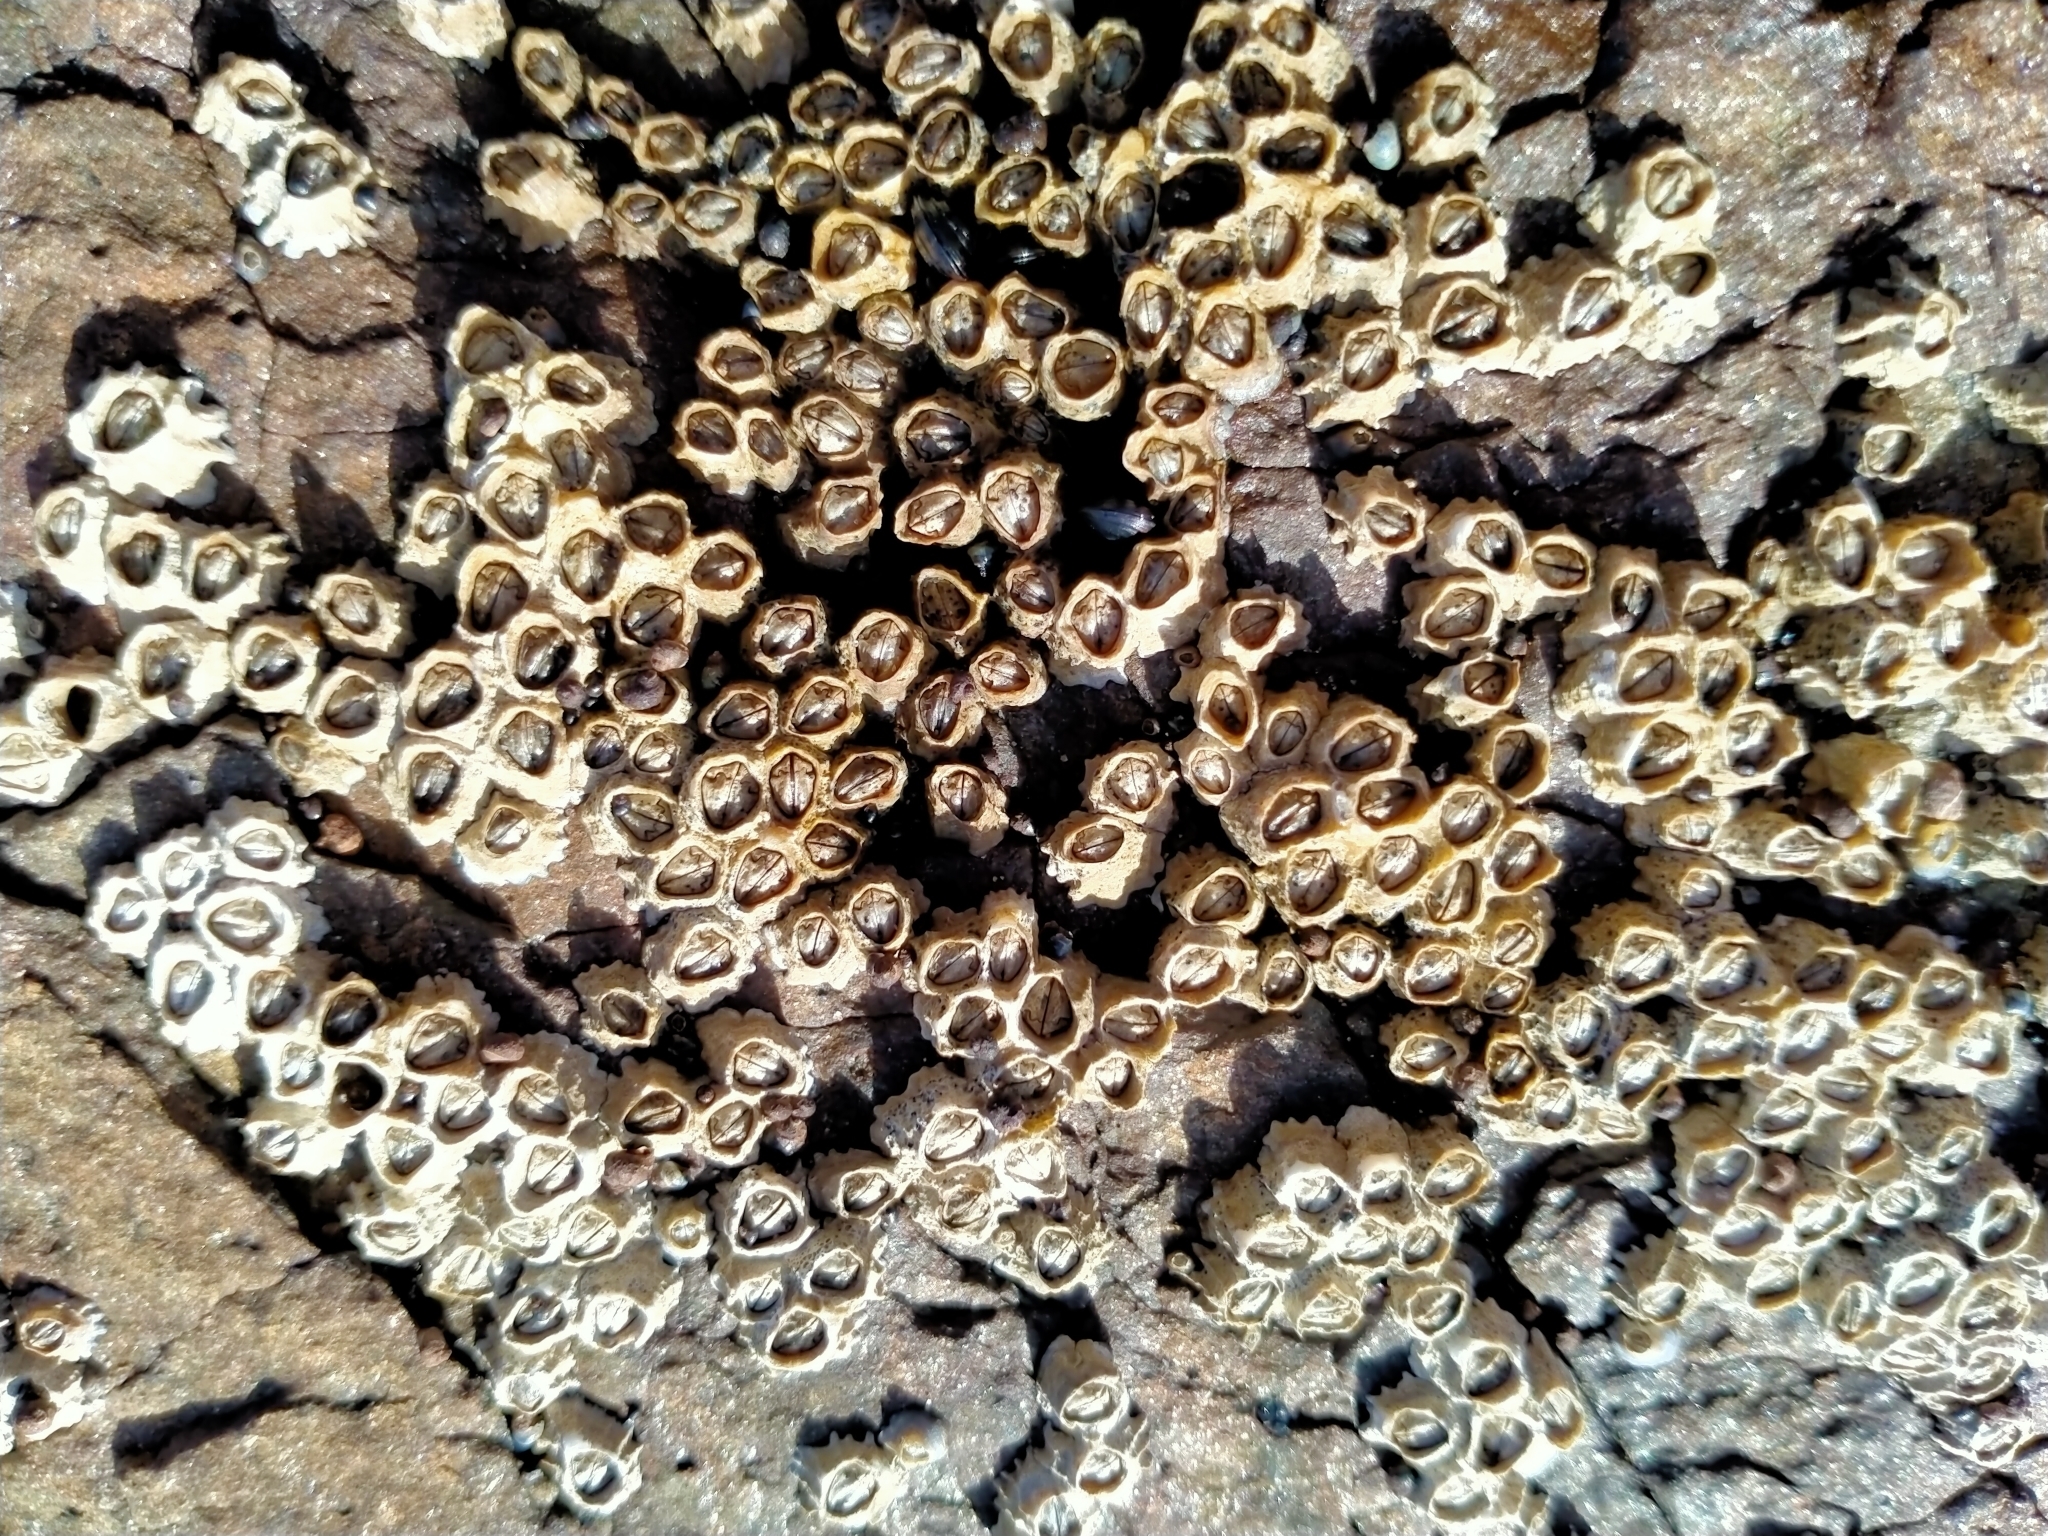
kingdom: Animalia
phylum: Arthropoda
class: Maxillopoda
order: Sessilia
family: Chthamalidae
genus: Chamaesipho
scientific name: Chamaesipho columna
